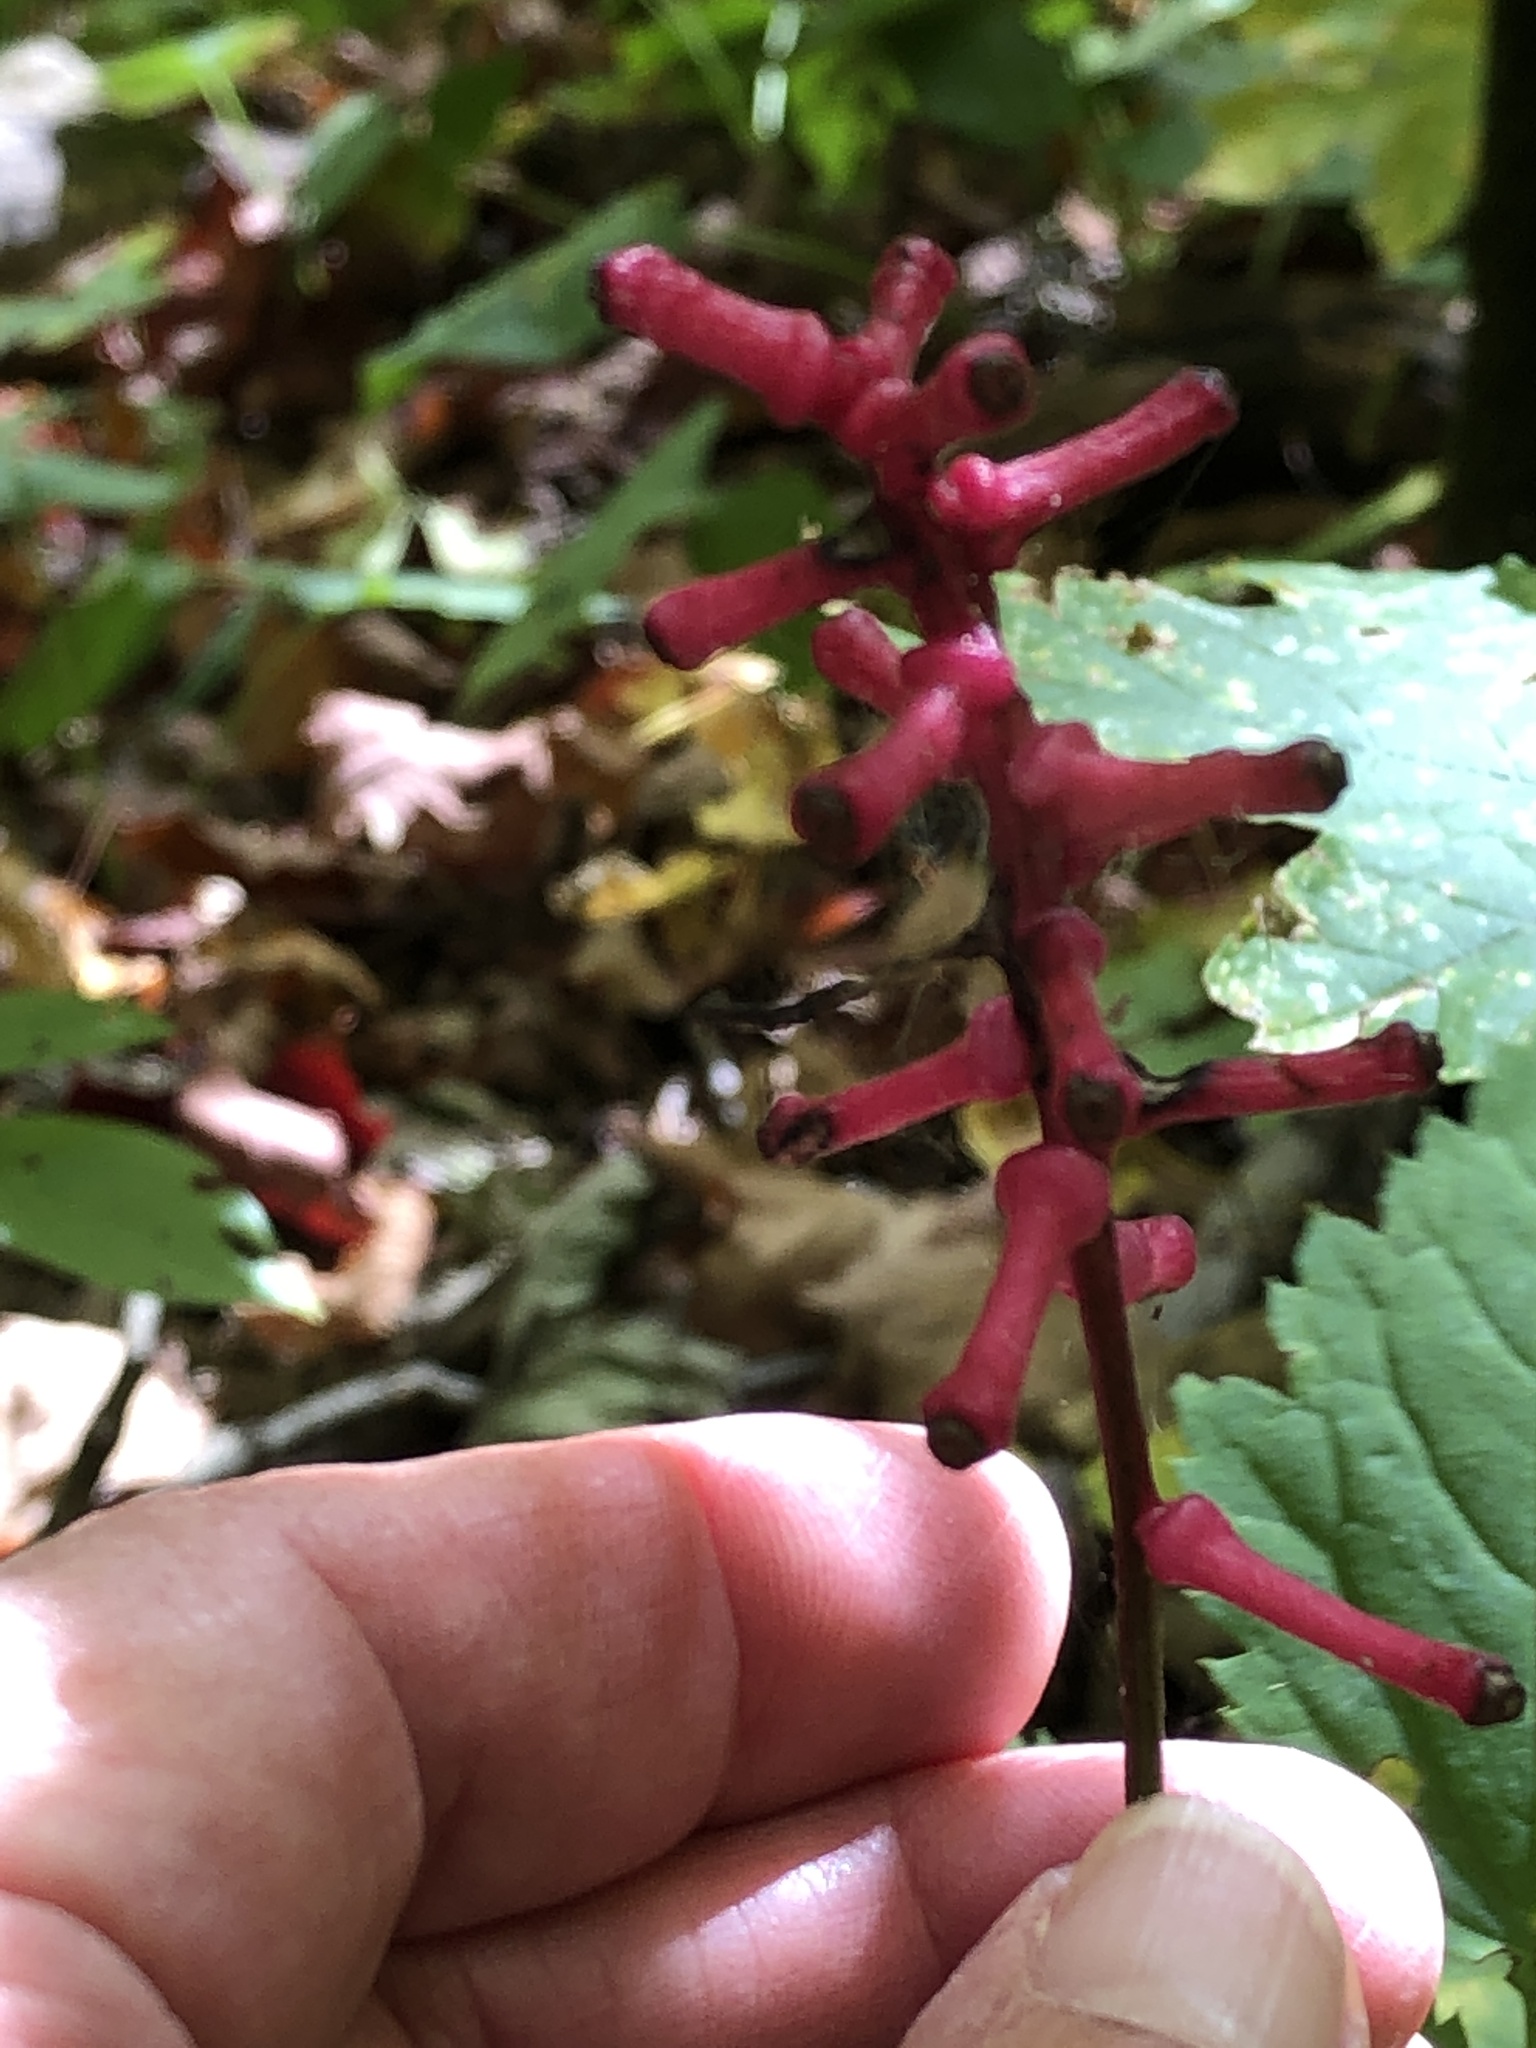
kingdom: Plantae
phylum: Tracheophyta
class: Magnoliopsida
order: Ranunculales
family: Ranunculaceae
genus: Actaea
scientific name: Actaea pachypoda
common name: Doll's-eyes
